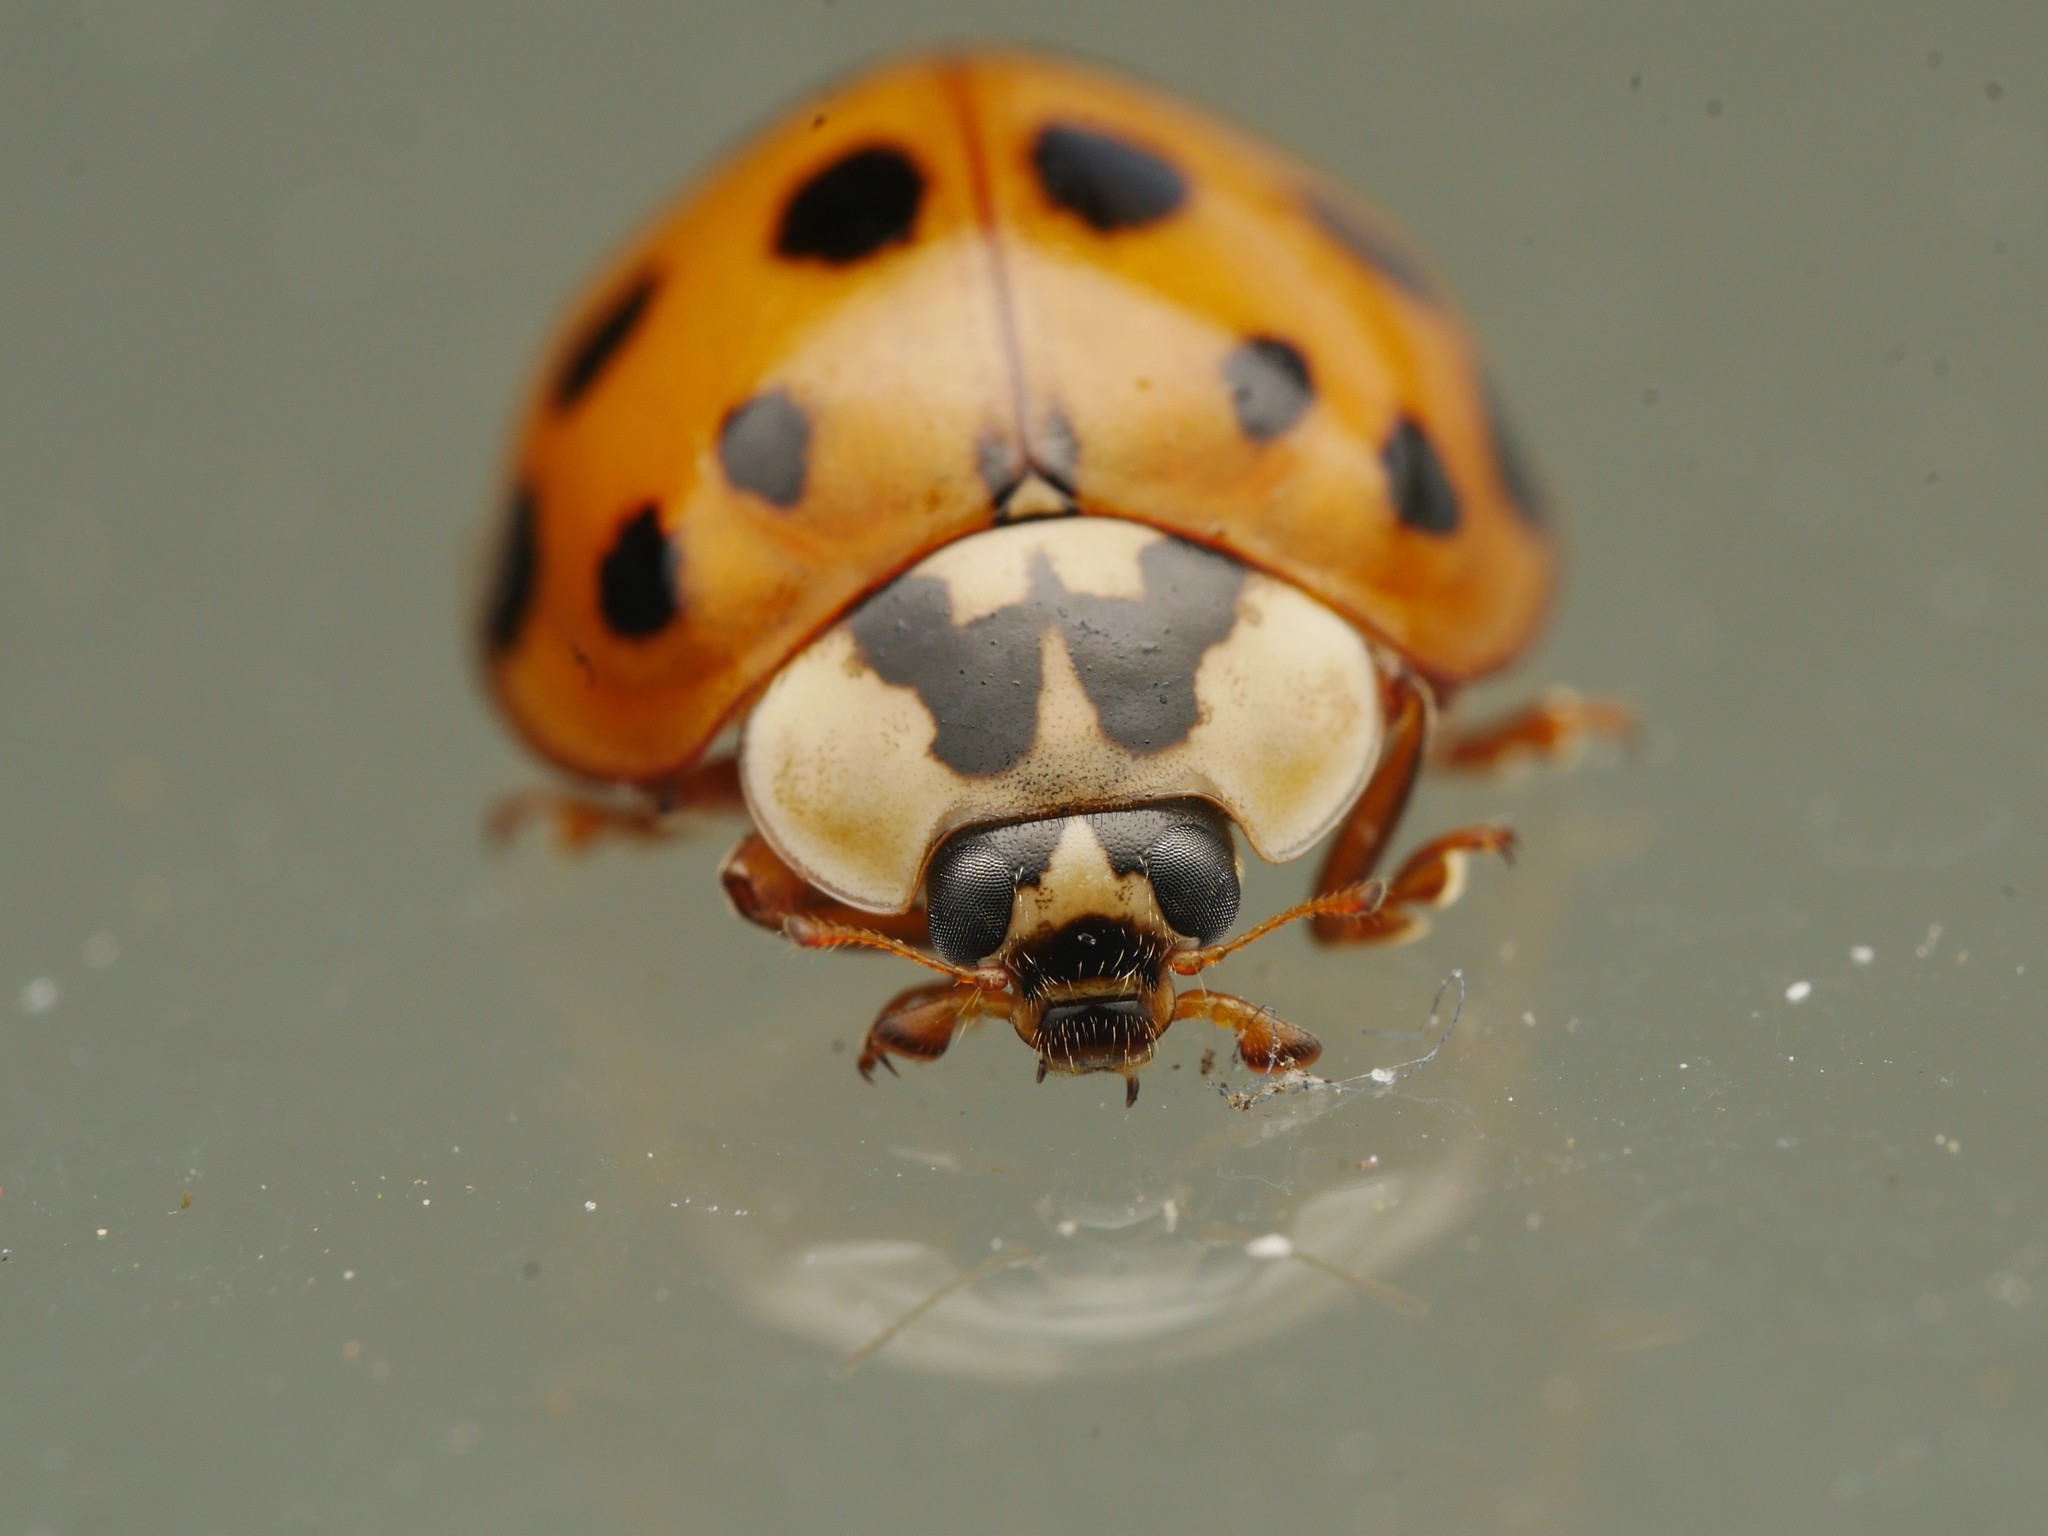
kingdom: Animalia
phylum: Arthropoda
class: Insecta
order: Coleoptera
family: Coccinellidae
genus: Harmonia
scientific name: Harmonia axyridis
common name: Harlequin ladybird
